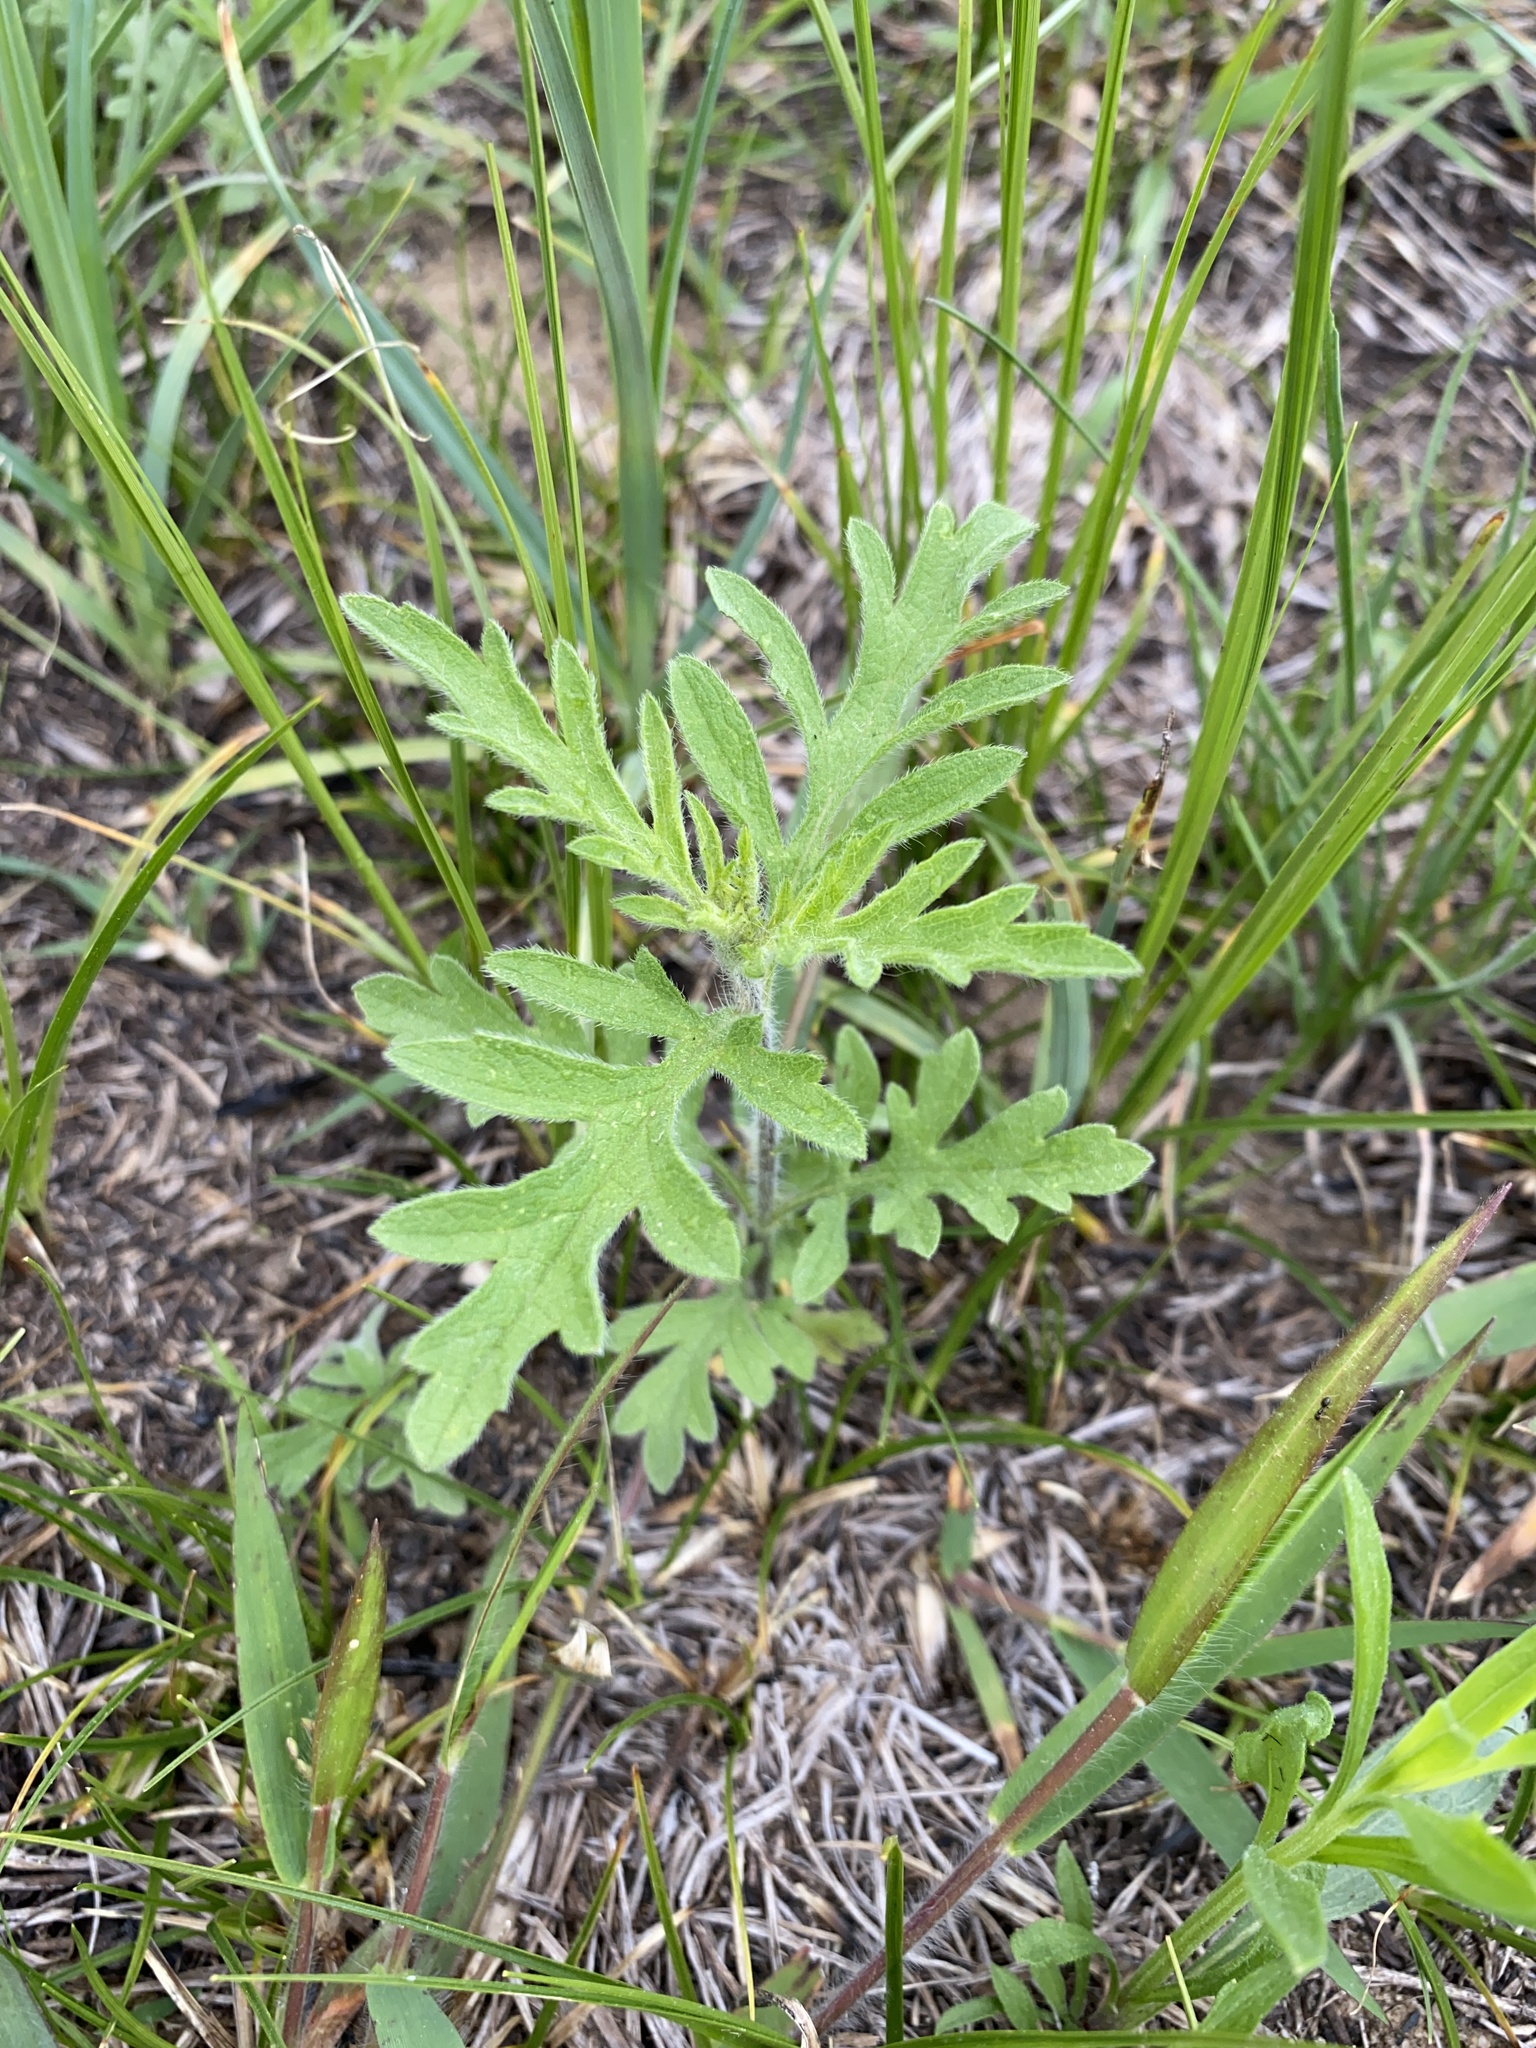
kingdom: Plantae
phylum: Tracheophyta
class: Magnoliopsida
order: Asterales
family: Asteraceae
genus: Ambrosia
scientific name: Ambrosia psilostachya
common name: Perennial ragweed
